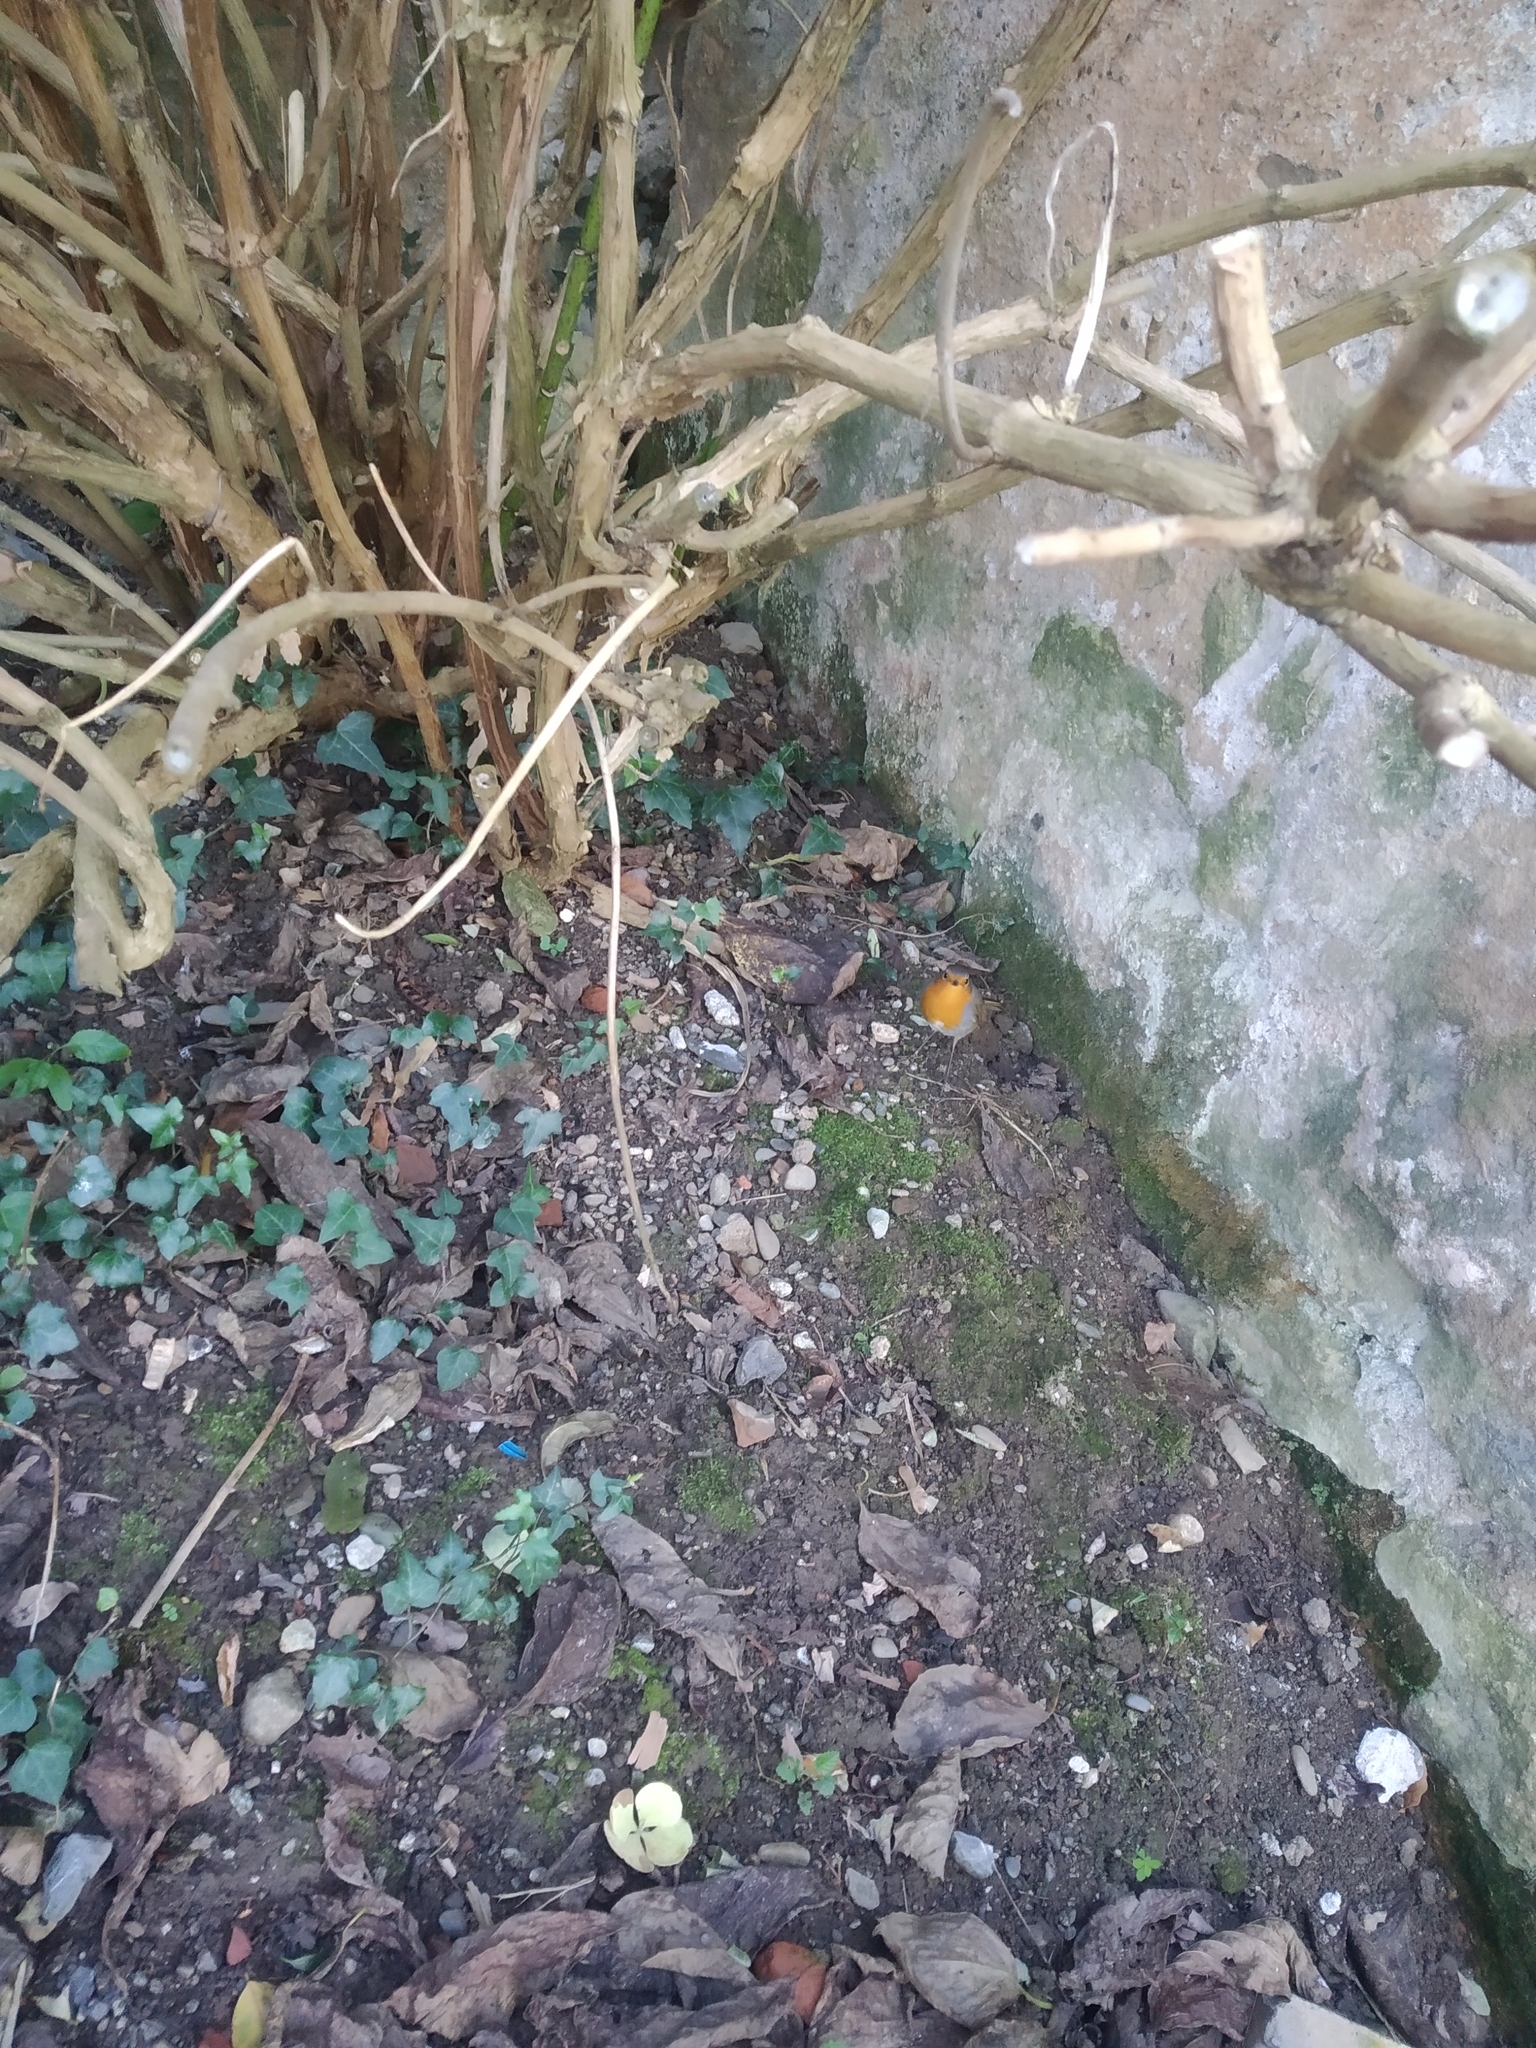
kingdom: Animalia
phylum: Chordata
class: Aves
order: Passeriformes
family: Muscicapidae
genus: Erithacus
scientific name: Erithacus rubecula
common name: European robin
